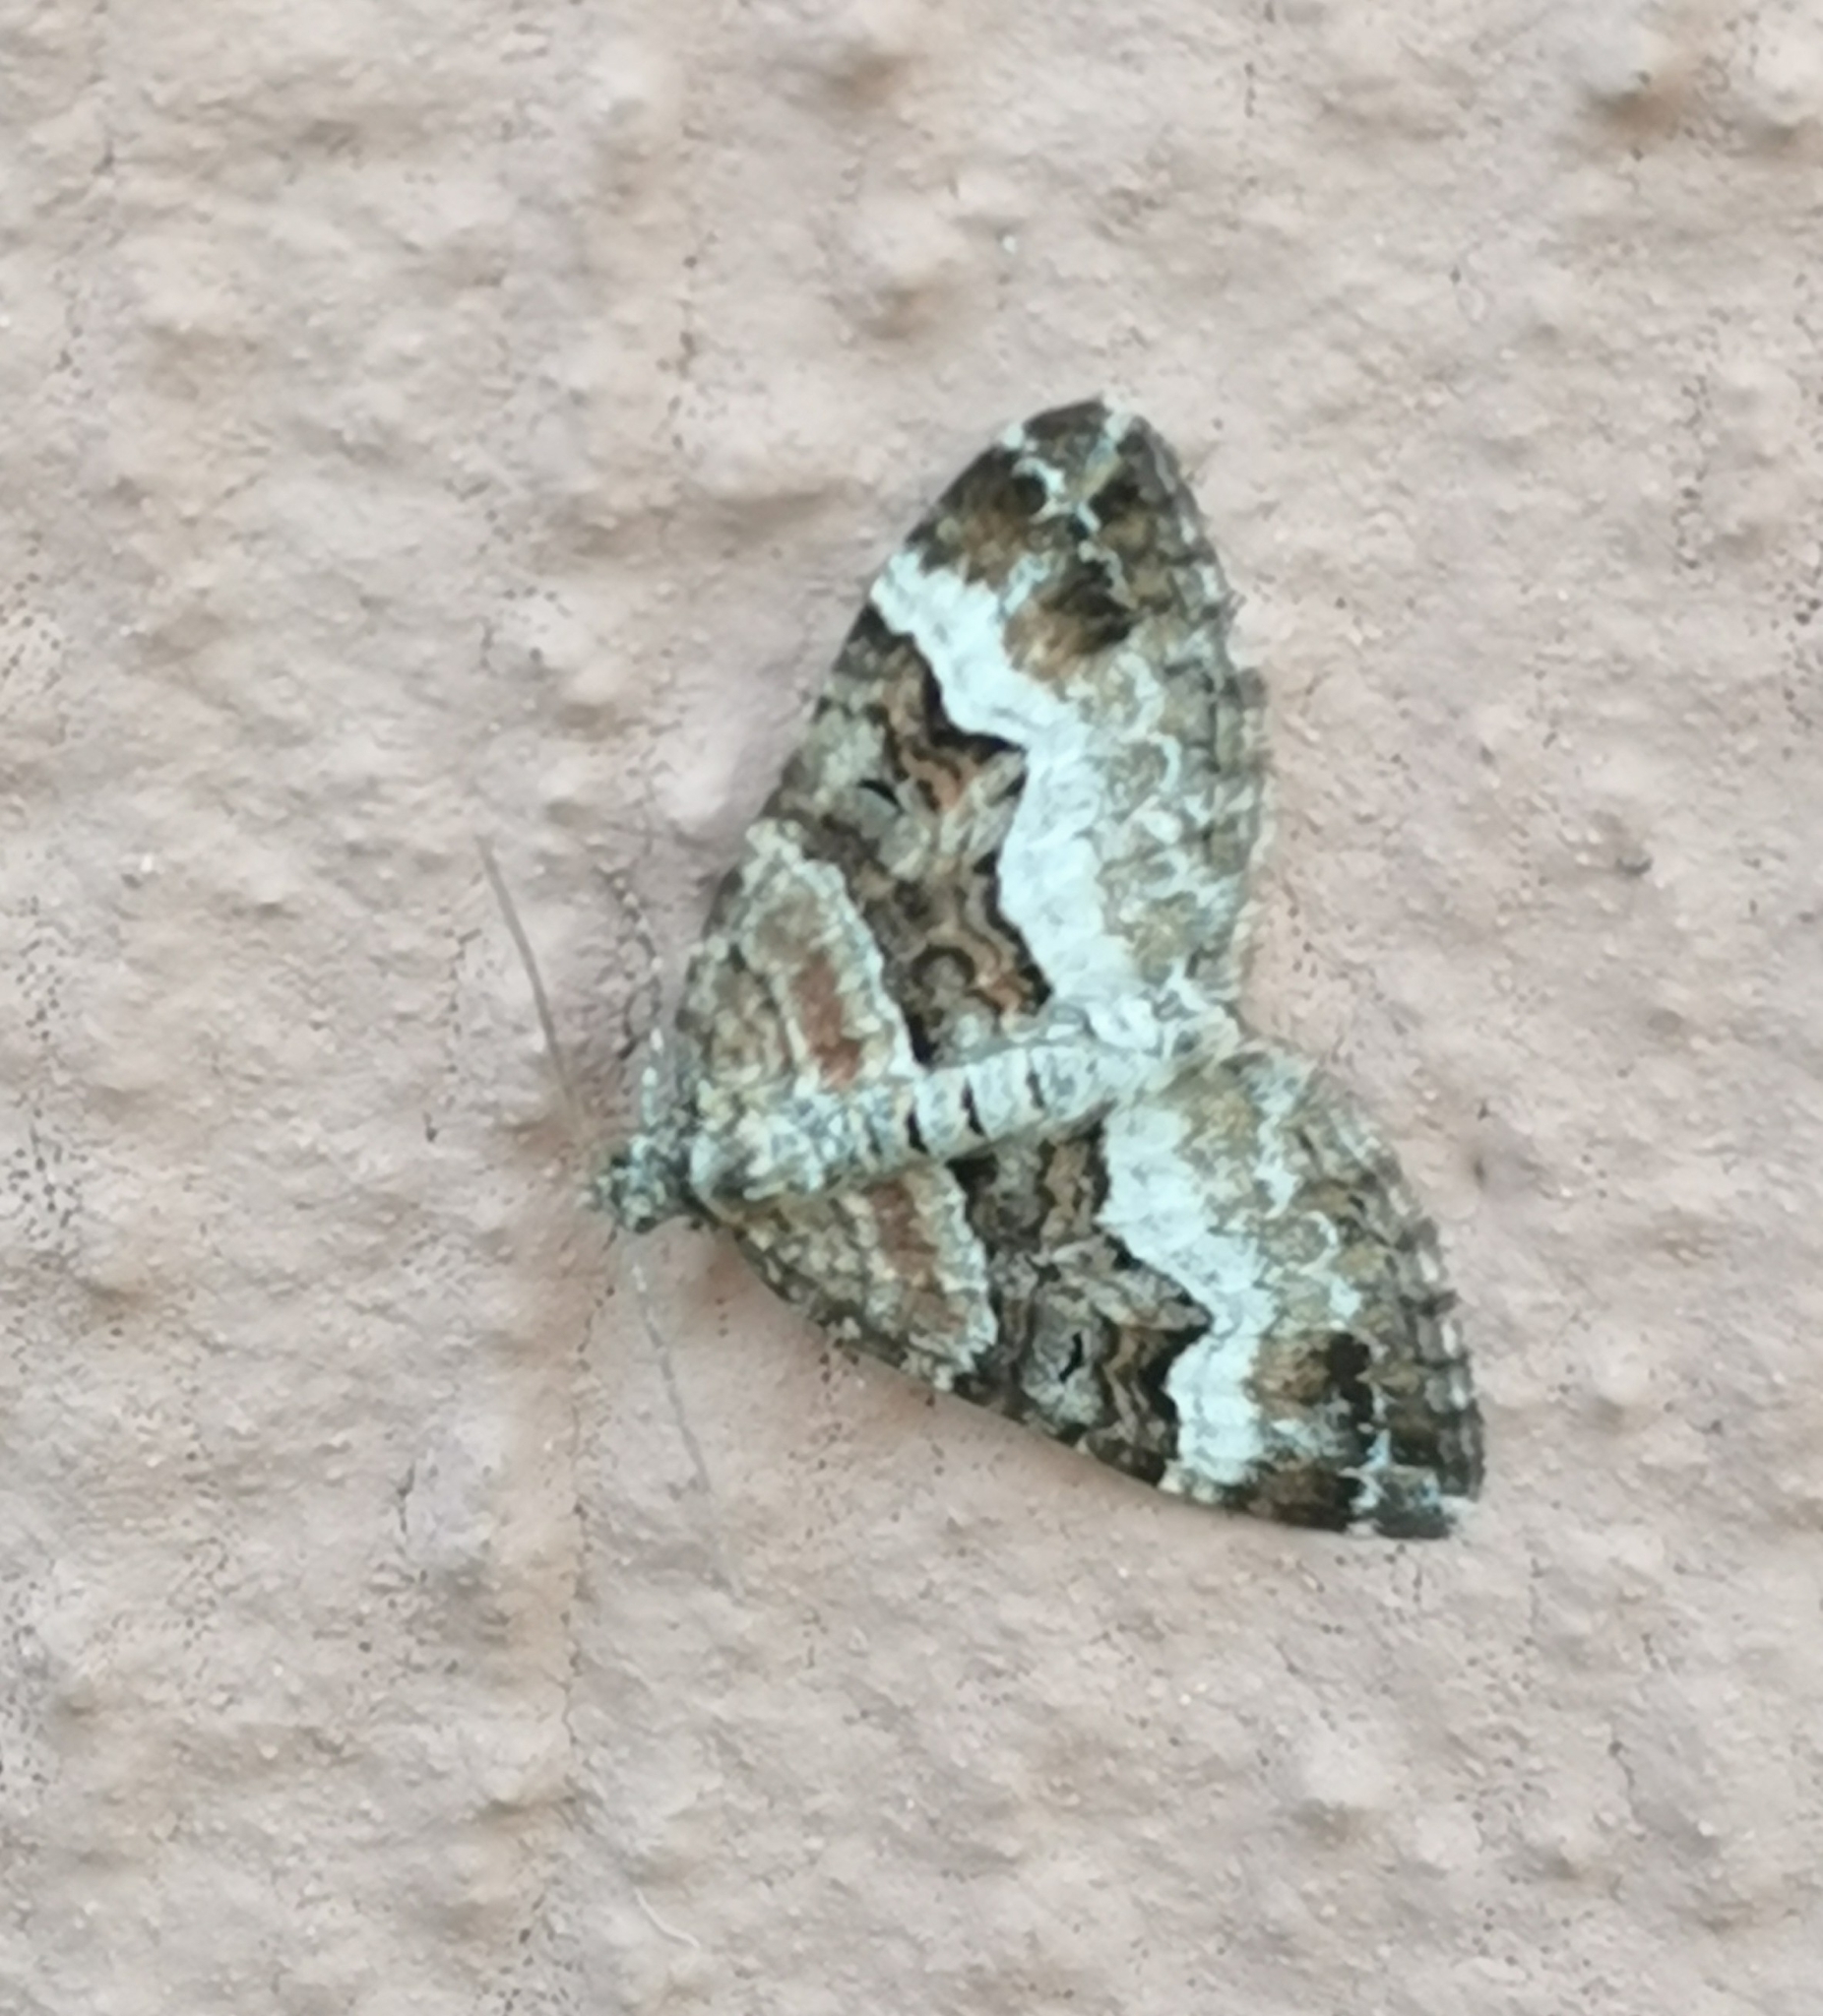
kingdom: Animalia
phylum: Arthropoda
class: Insecta
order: Lepidoptera
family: Geometridae
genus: Xanthorhoe
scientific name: Xanthorhoe biriviata
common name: Balsam carpet
